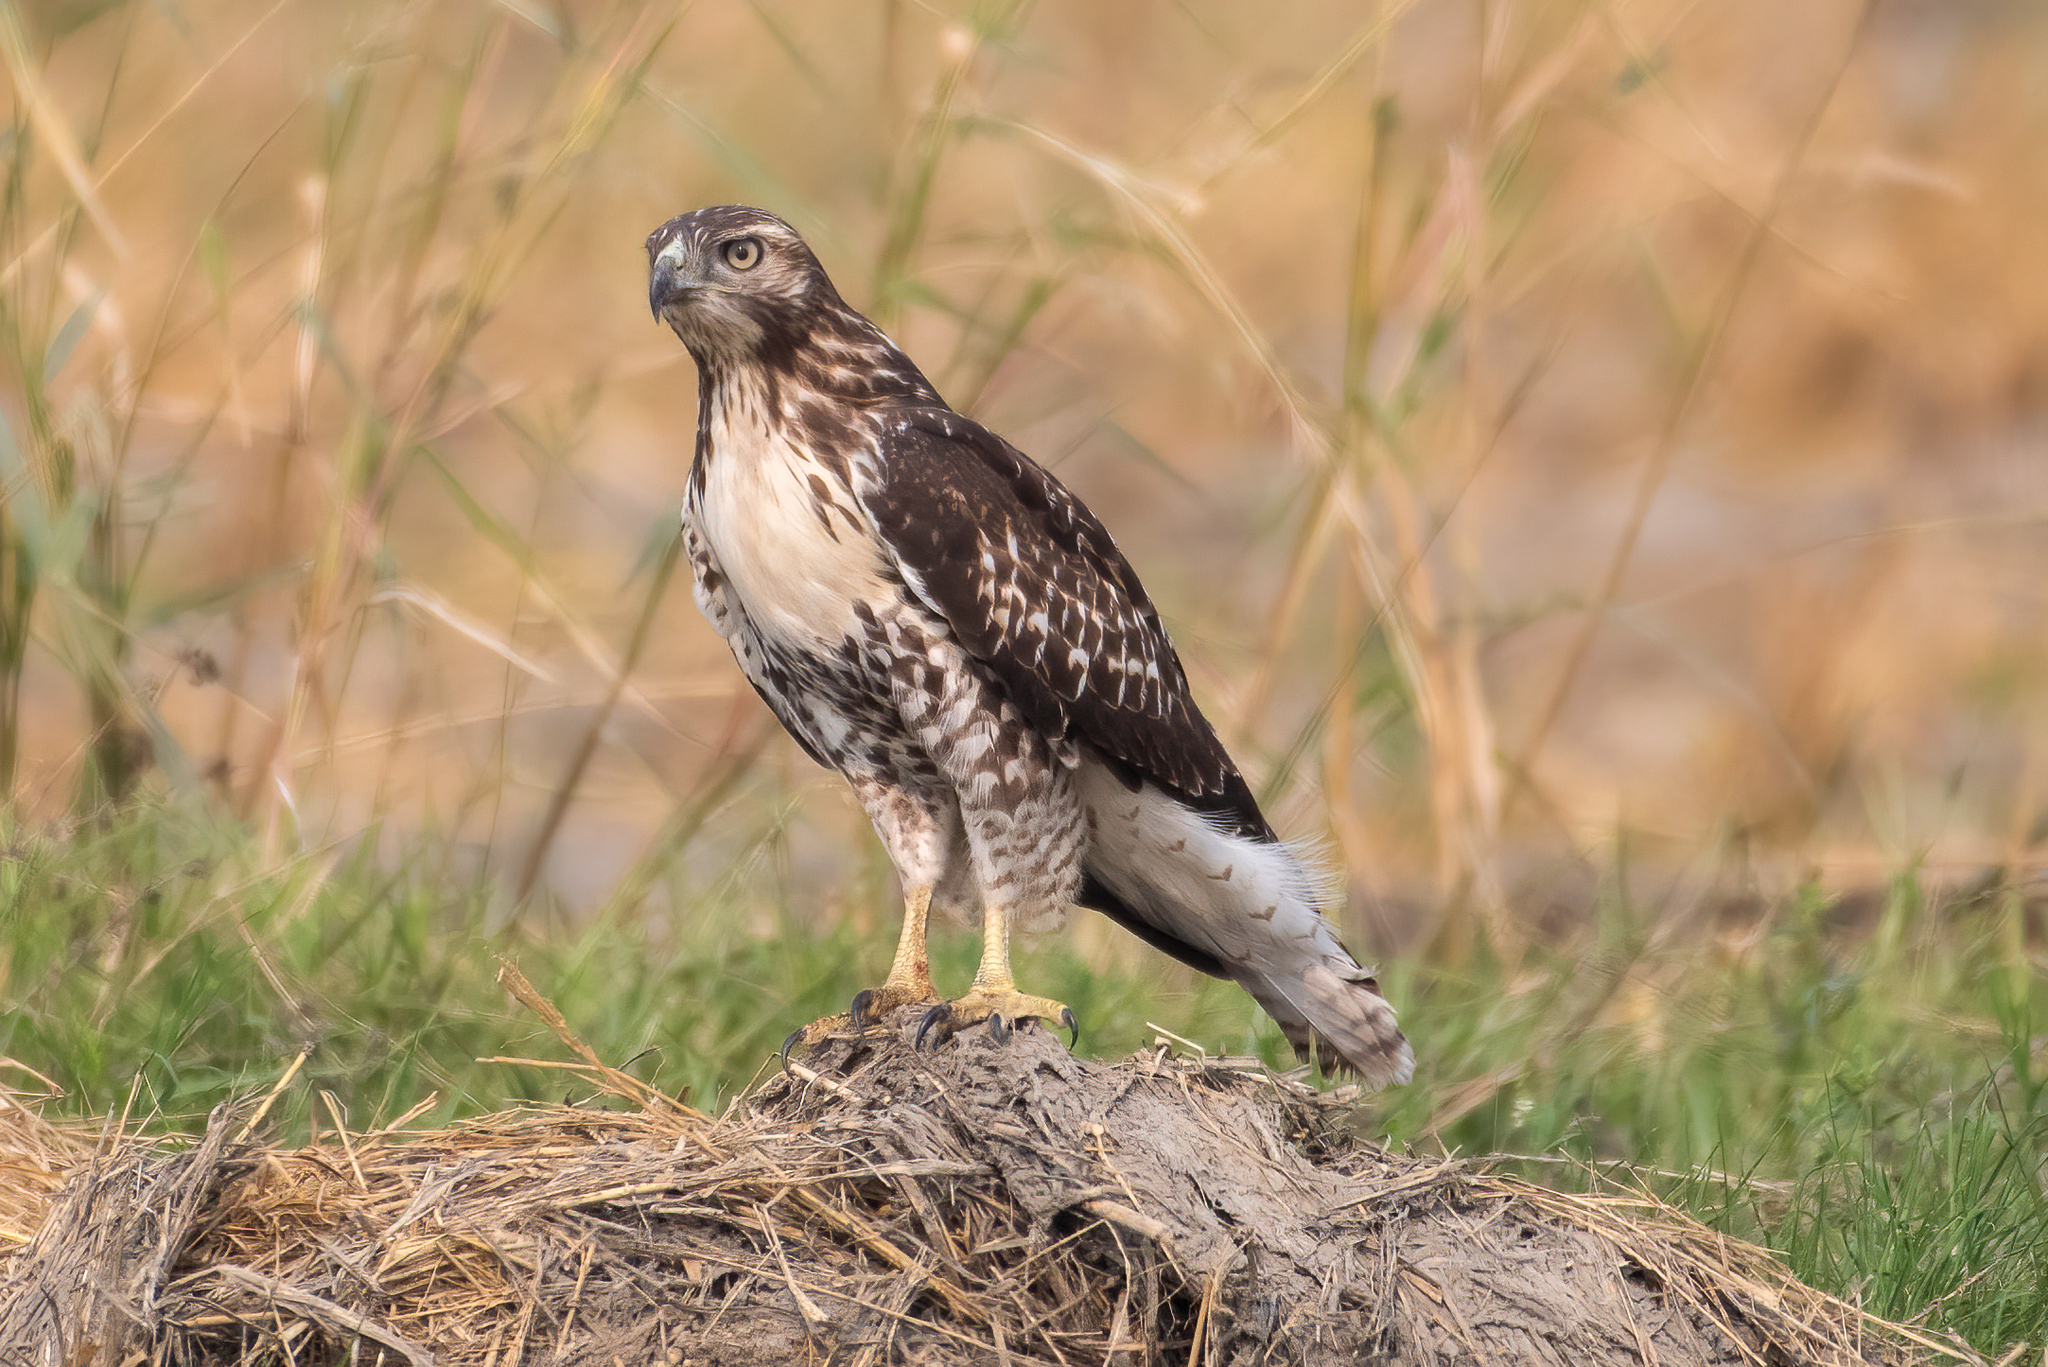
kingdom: Animalia
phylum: Chordata
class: Aves
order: Accipitriformes
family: Accipitridae
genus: Buteo
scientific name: Buteo jamaicensis
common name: Red-tailed hawk
